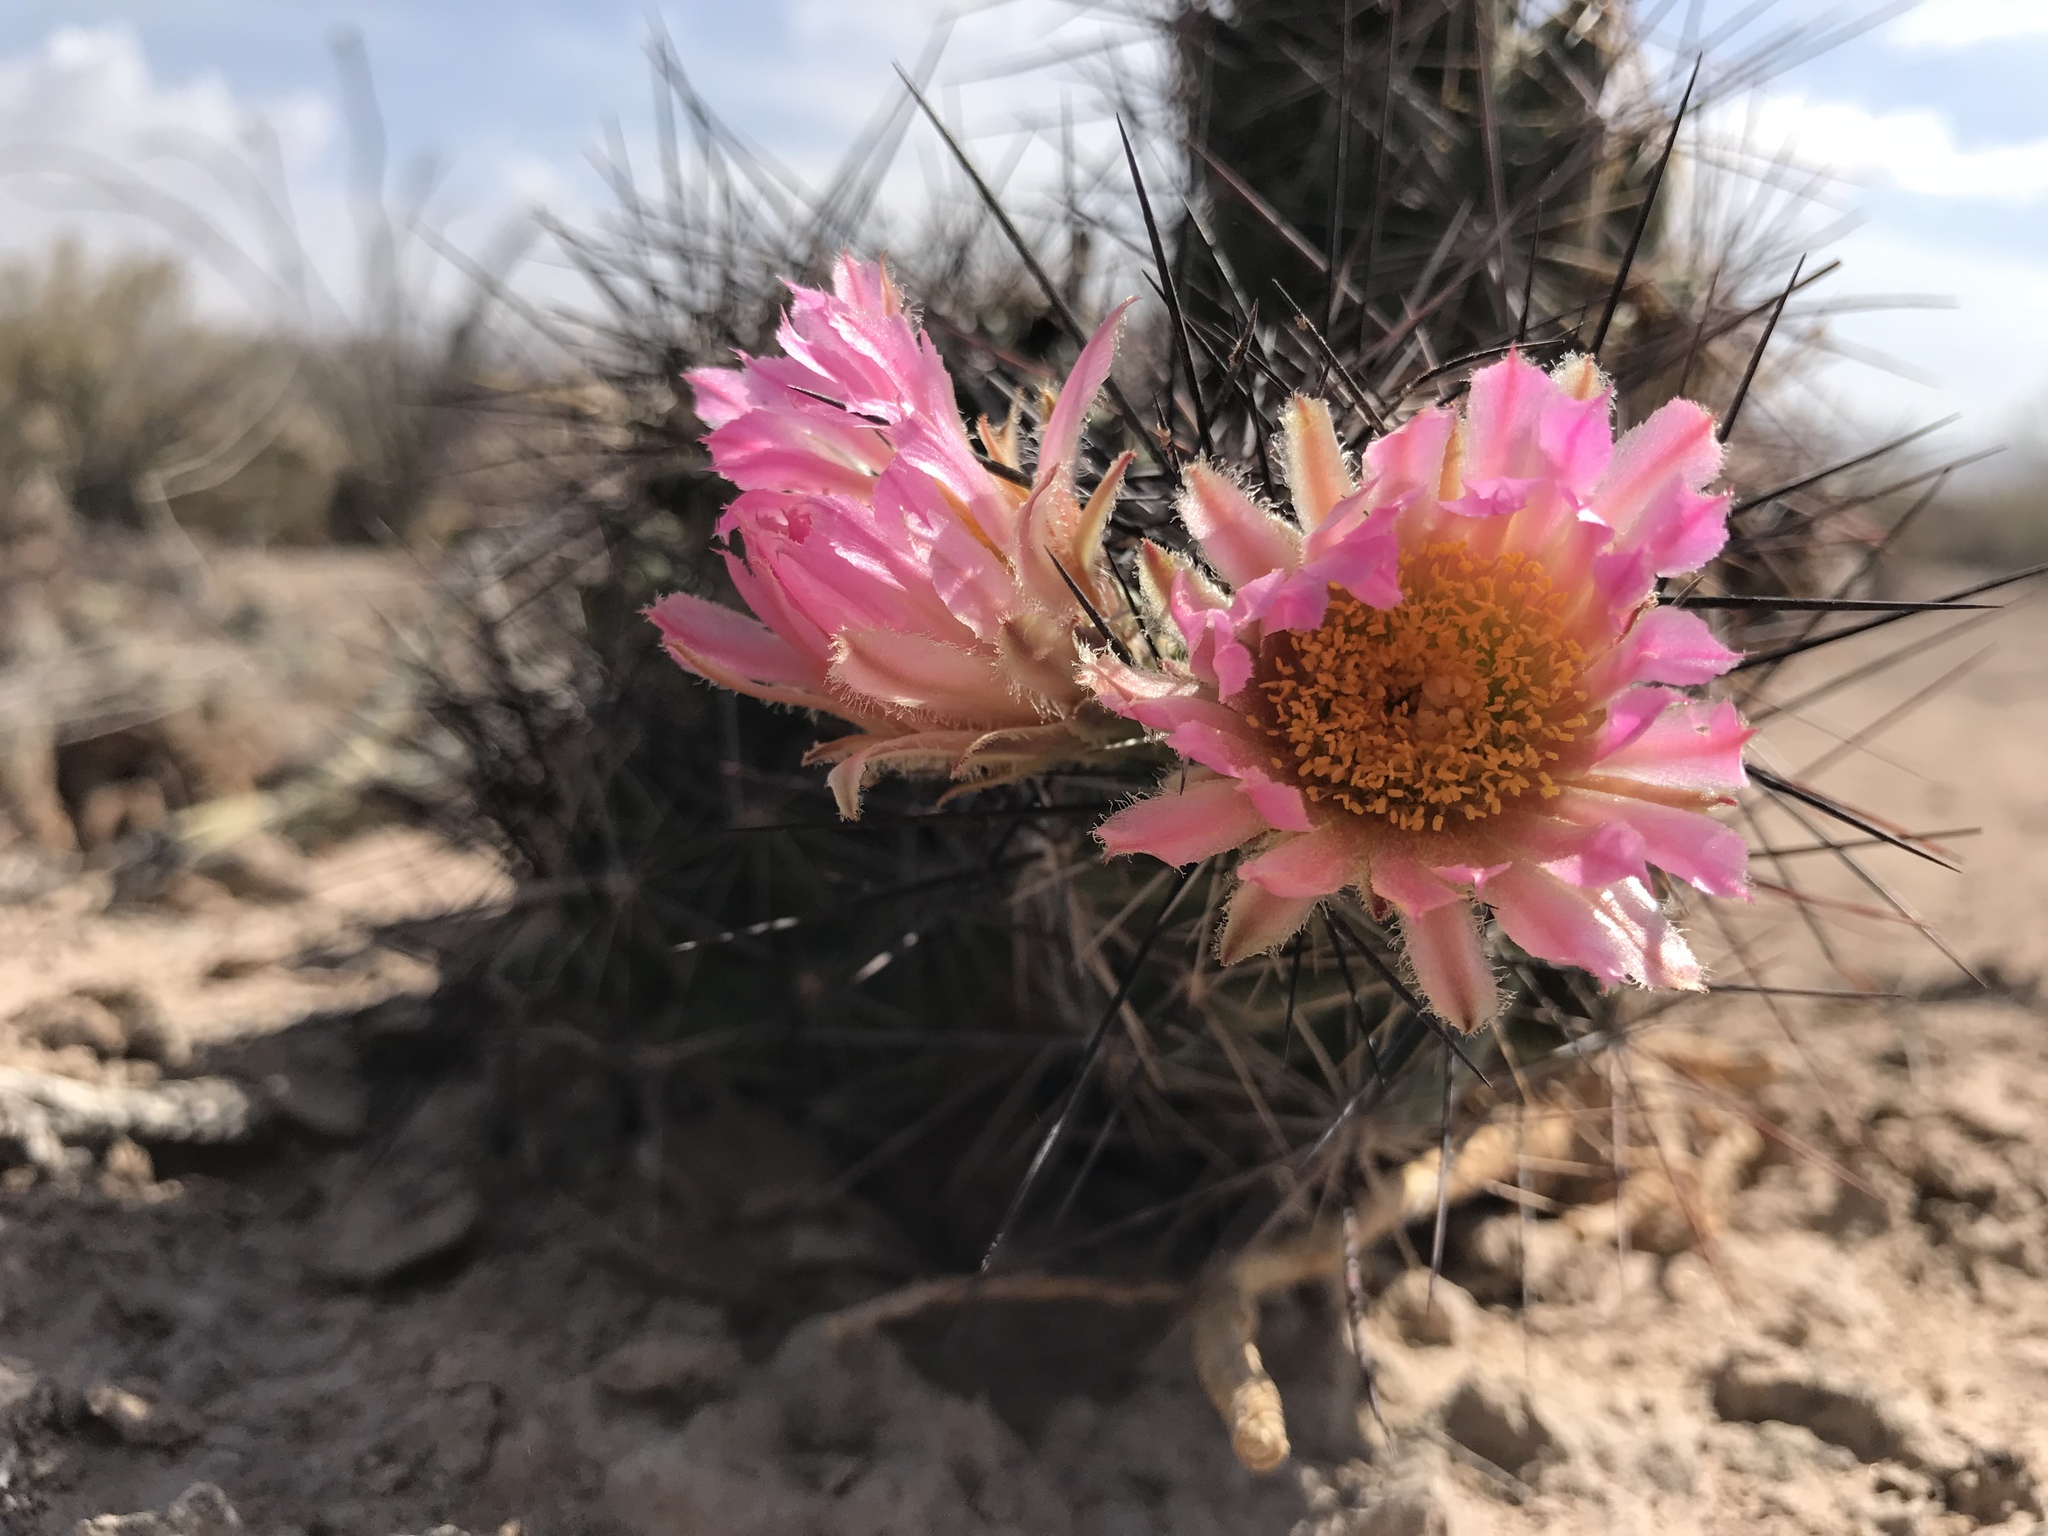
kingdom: Plantae
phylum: Tracheophyta
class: Magnoliopsida
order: Caryophyllales
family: Cactaceae
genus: Coryphantha
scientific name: Coryphantha macromeris
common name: Nipple beehive cactus
